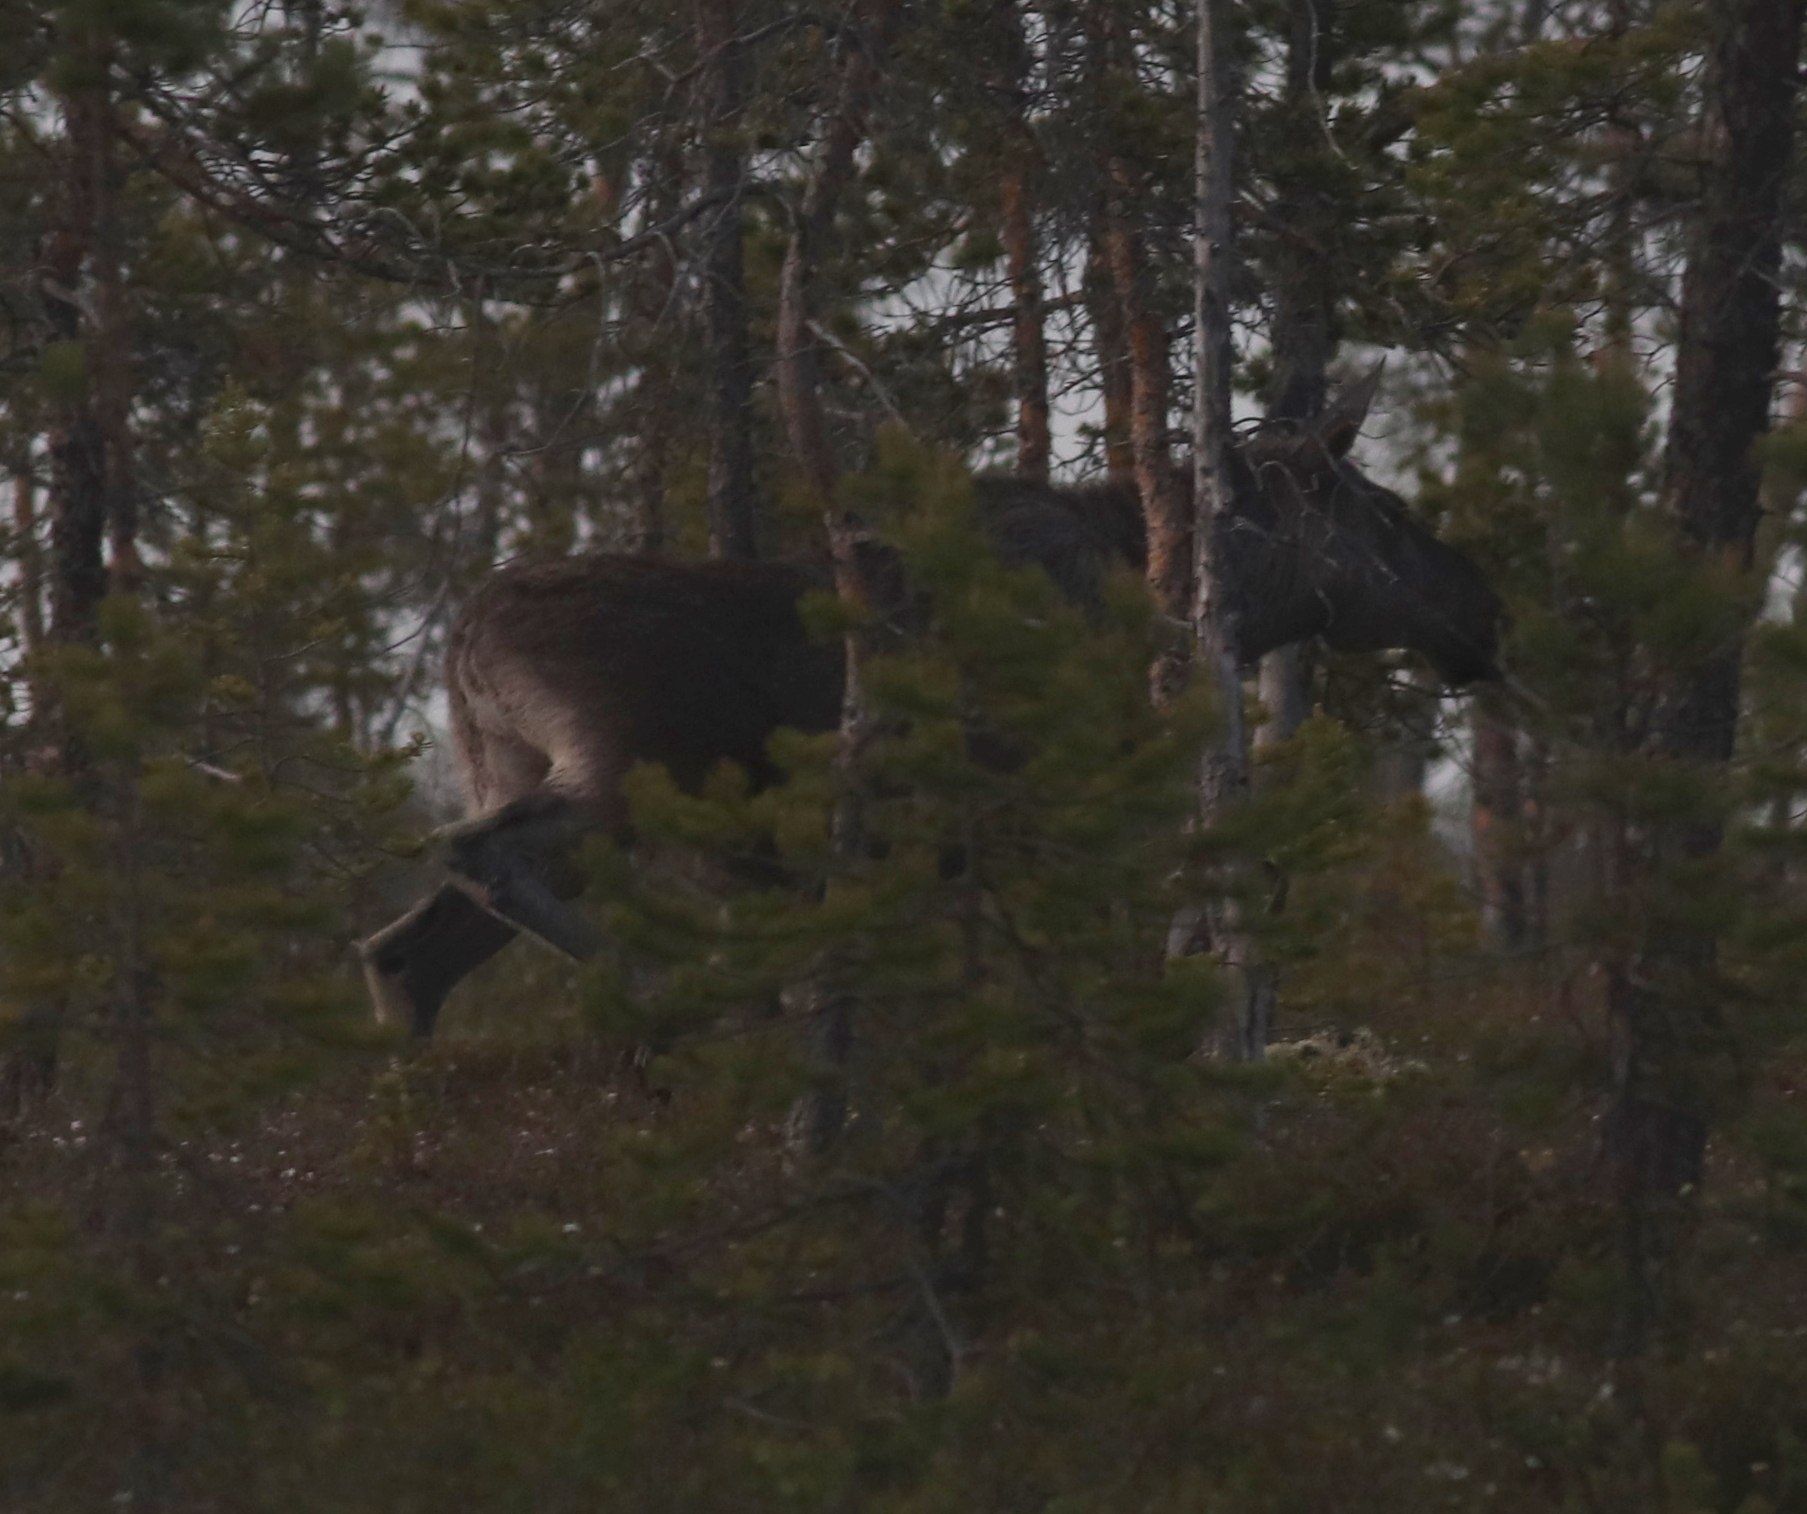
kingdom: Animalia
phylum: Chordata
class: Mammalia
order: Artiodactyla
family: Cervidae
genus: Alces
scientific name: Alces alces
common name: Moose
